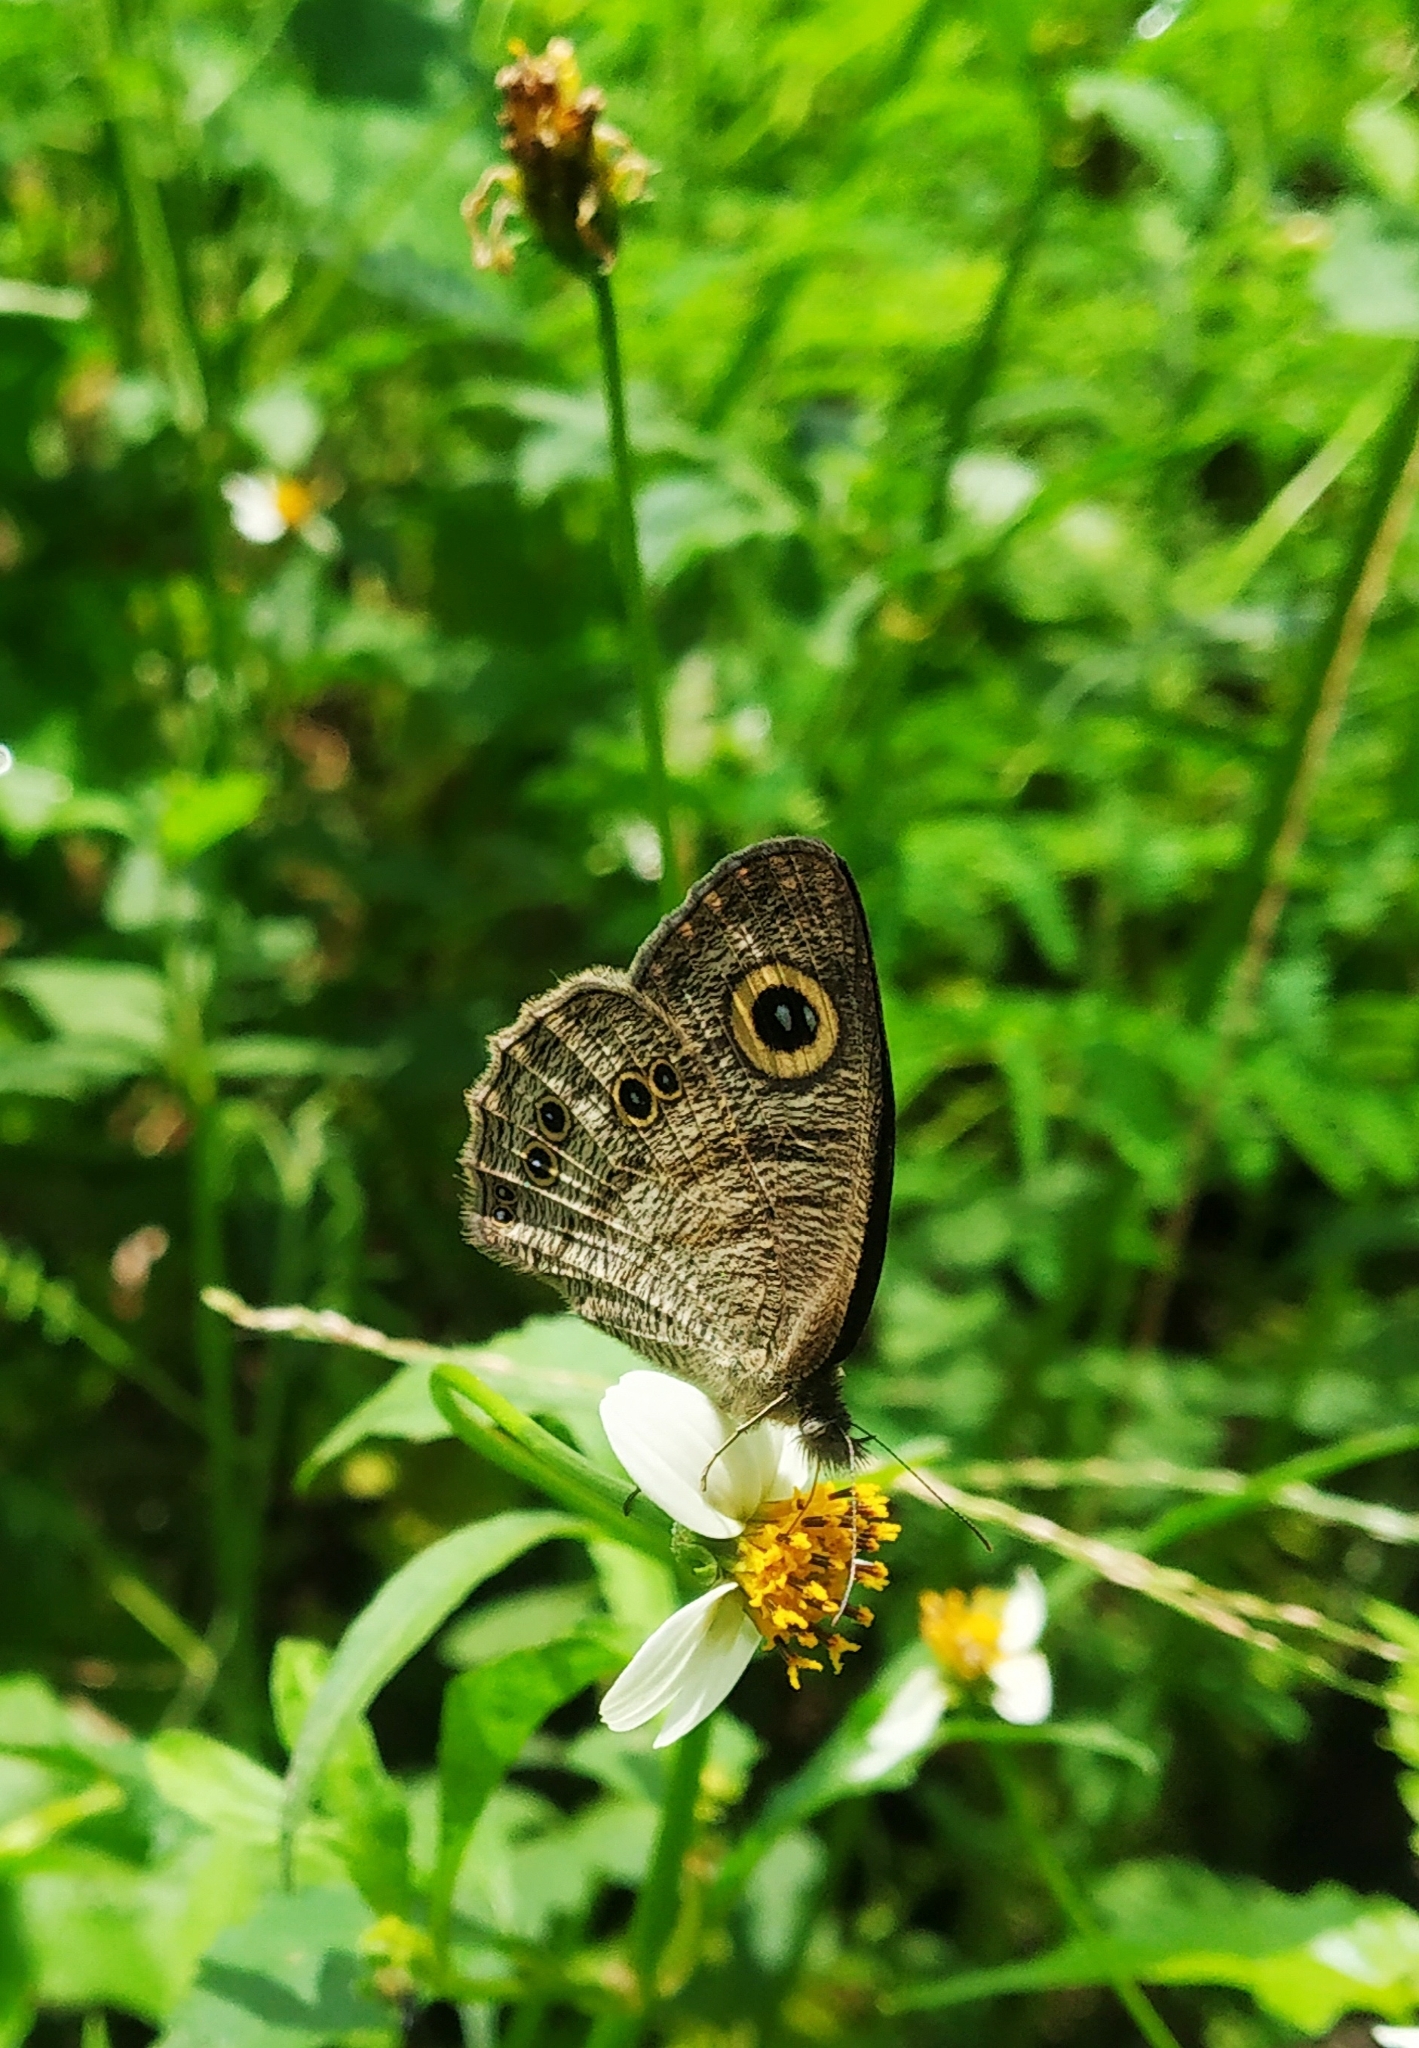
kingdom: Animalia
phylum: Arthropoda
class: Insecta
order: Lepidoptera
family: Nymphalidae
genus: Ypthima
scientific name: Ypthima baldus
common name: Common five-ring
